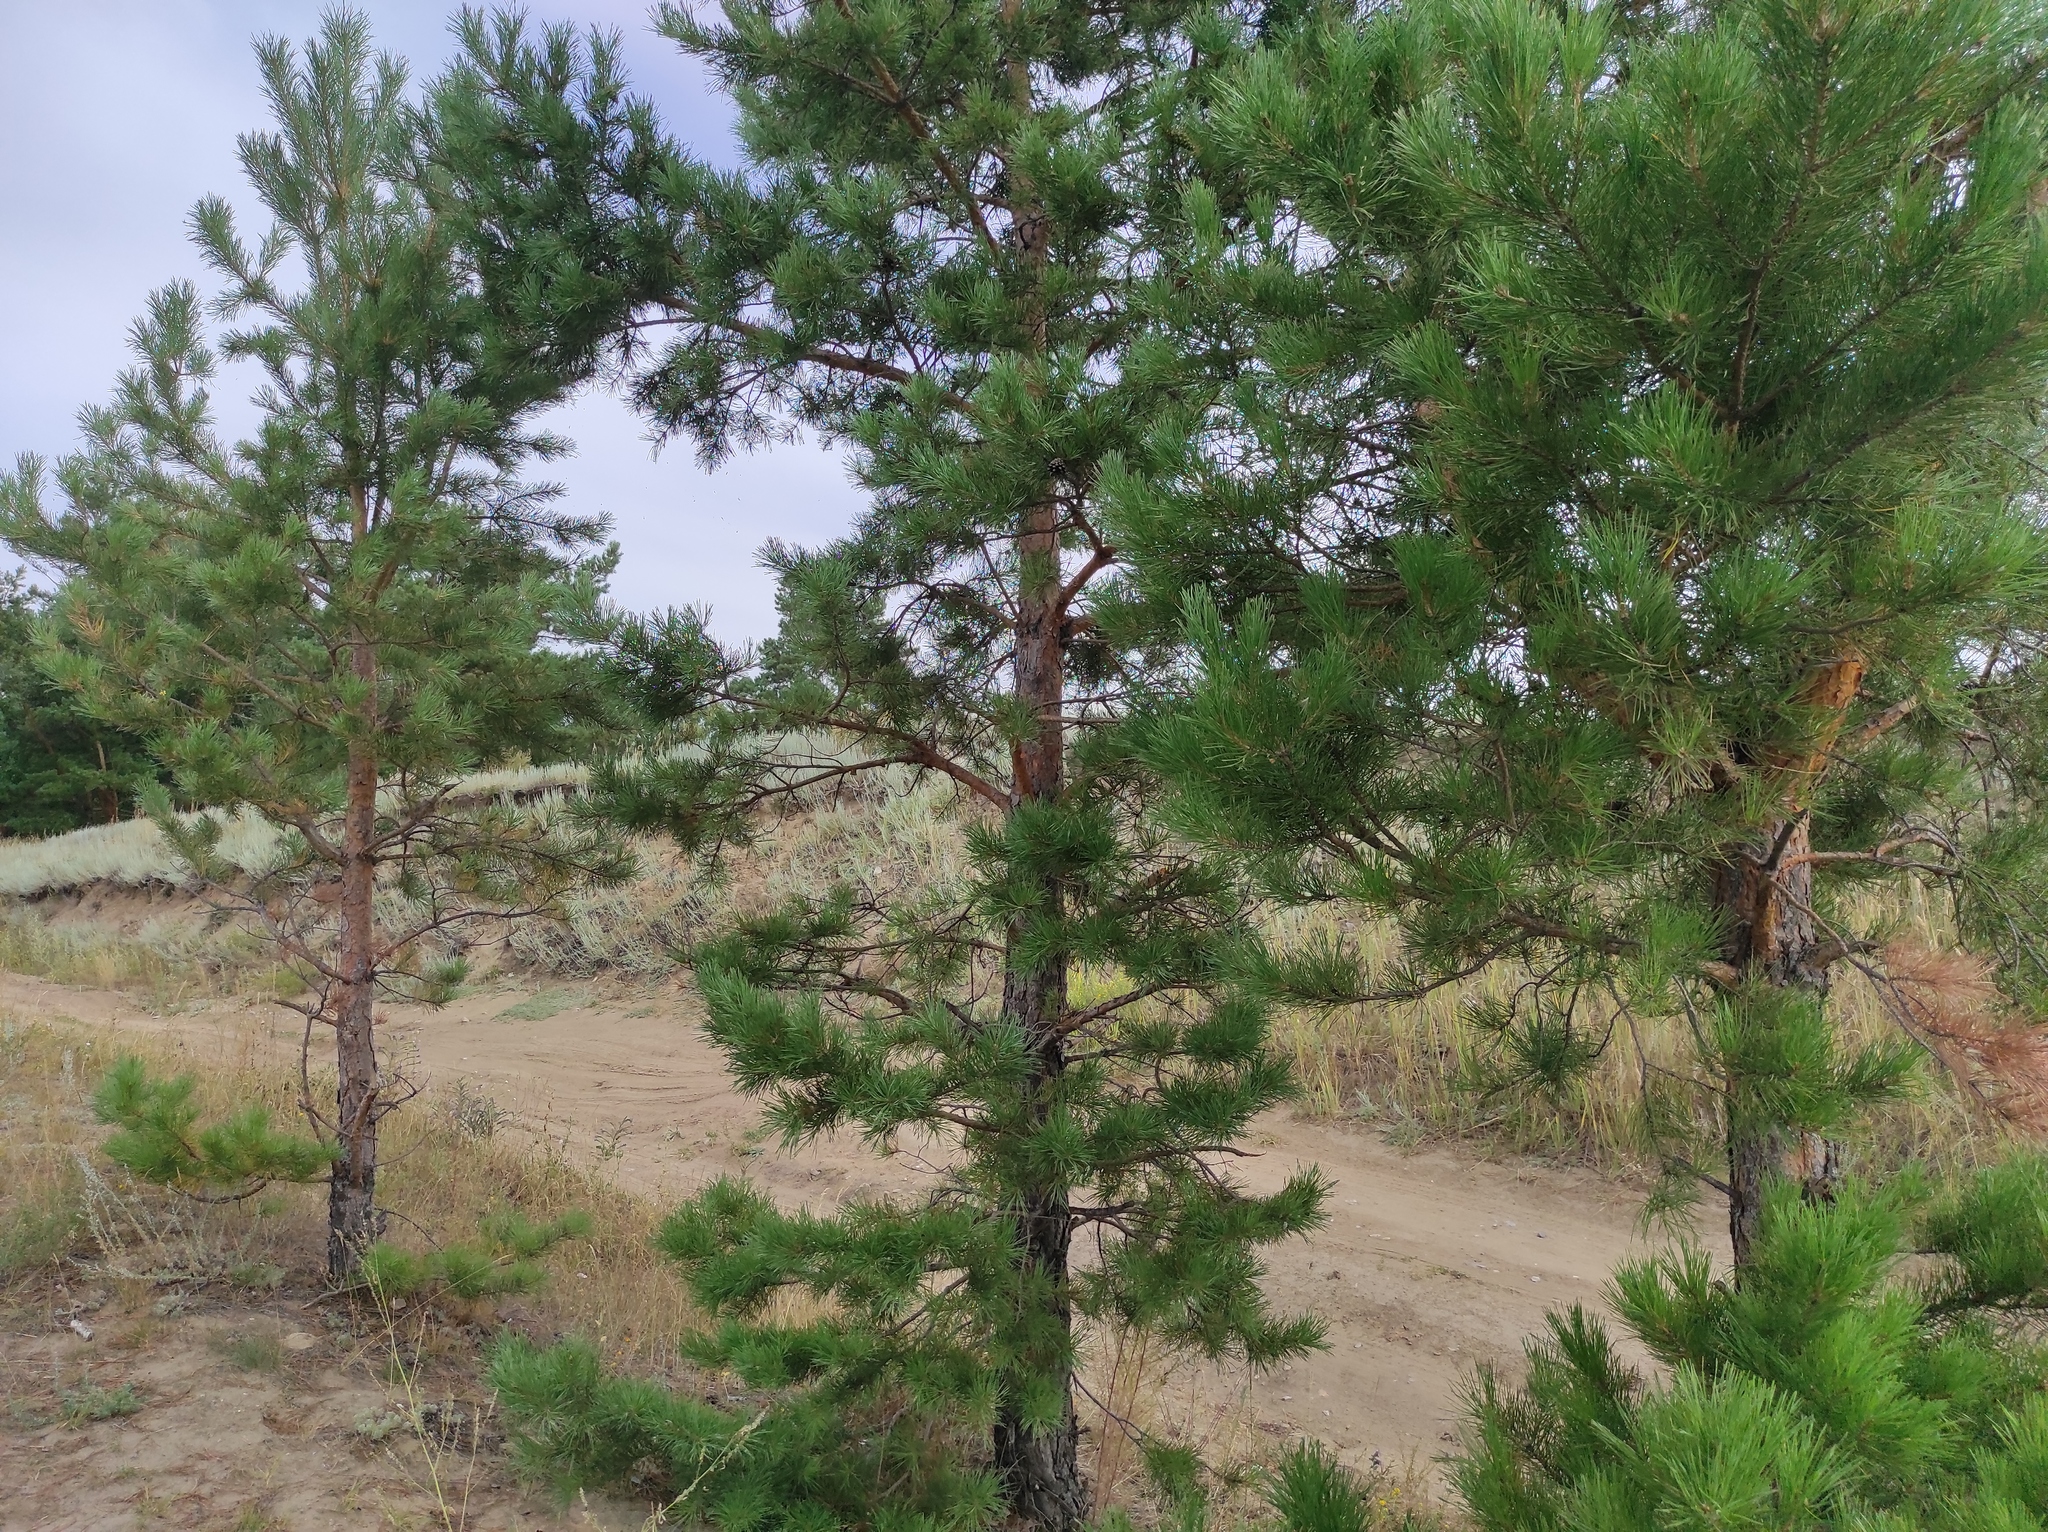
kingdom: Plantae
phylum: Tracheophyta
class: Pinopsida
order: Pinales
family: Pinaceae
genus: Pinus
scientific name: Pinus sylvestris
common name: Scots pine
